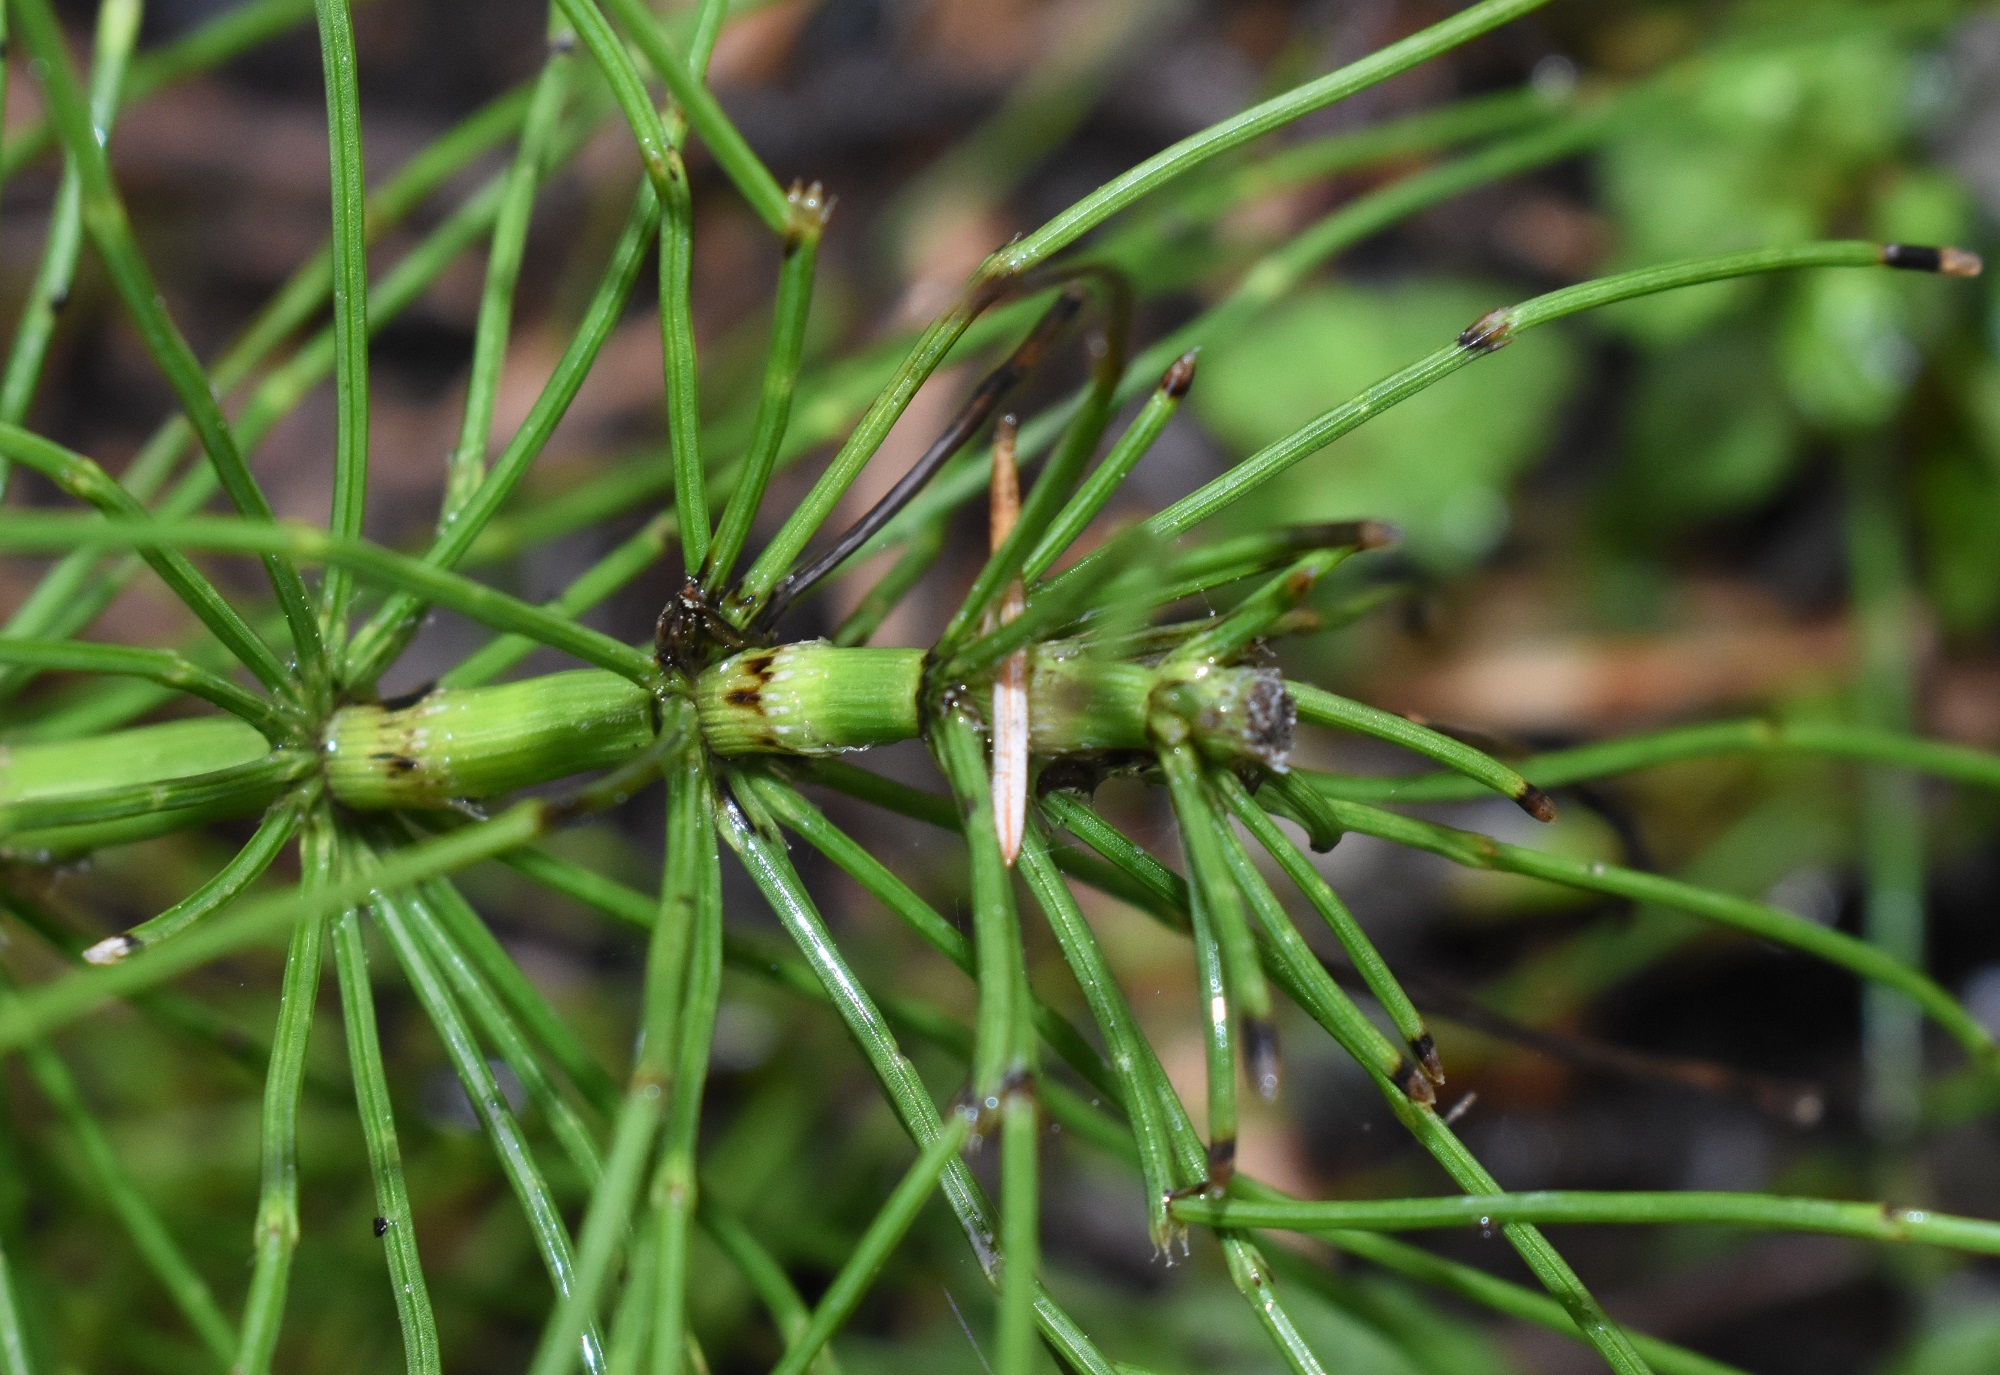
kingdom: Plantae
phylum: Tracheophyta
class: Polypodiopsida
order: Equisetales
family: Equisetaceae
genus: Equisetum
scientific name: Equisetum braunii
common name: Braun's horsetail
